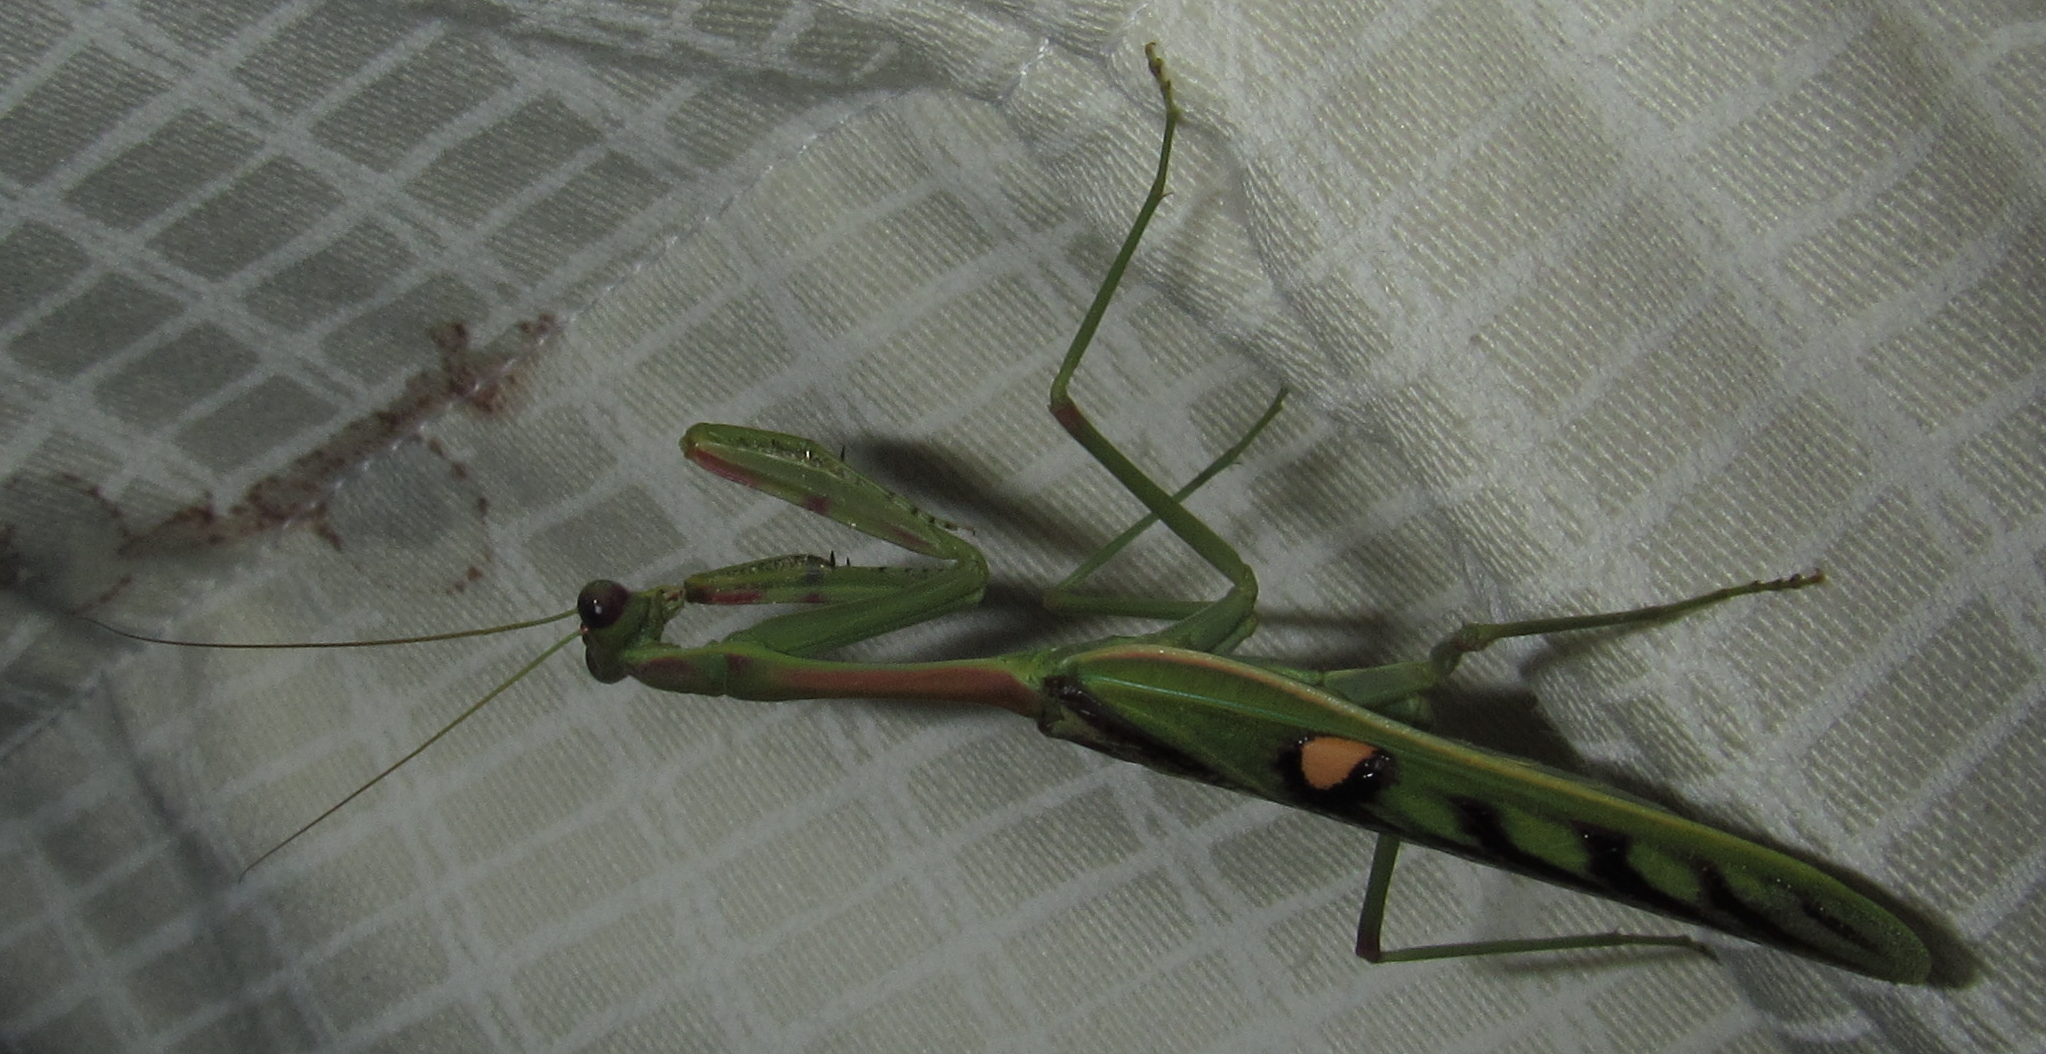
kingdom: Animalia
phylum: Arthropoda
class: Insecta
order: Mantodea
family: Mantidae
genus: Omomantis
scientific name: Omomantis zebrata
